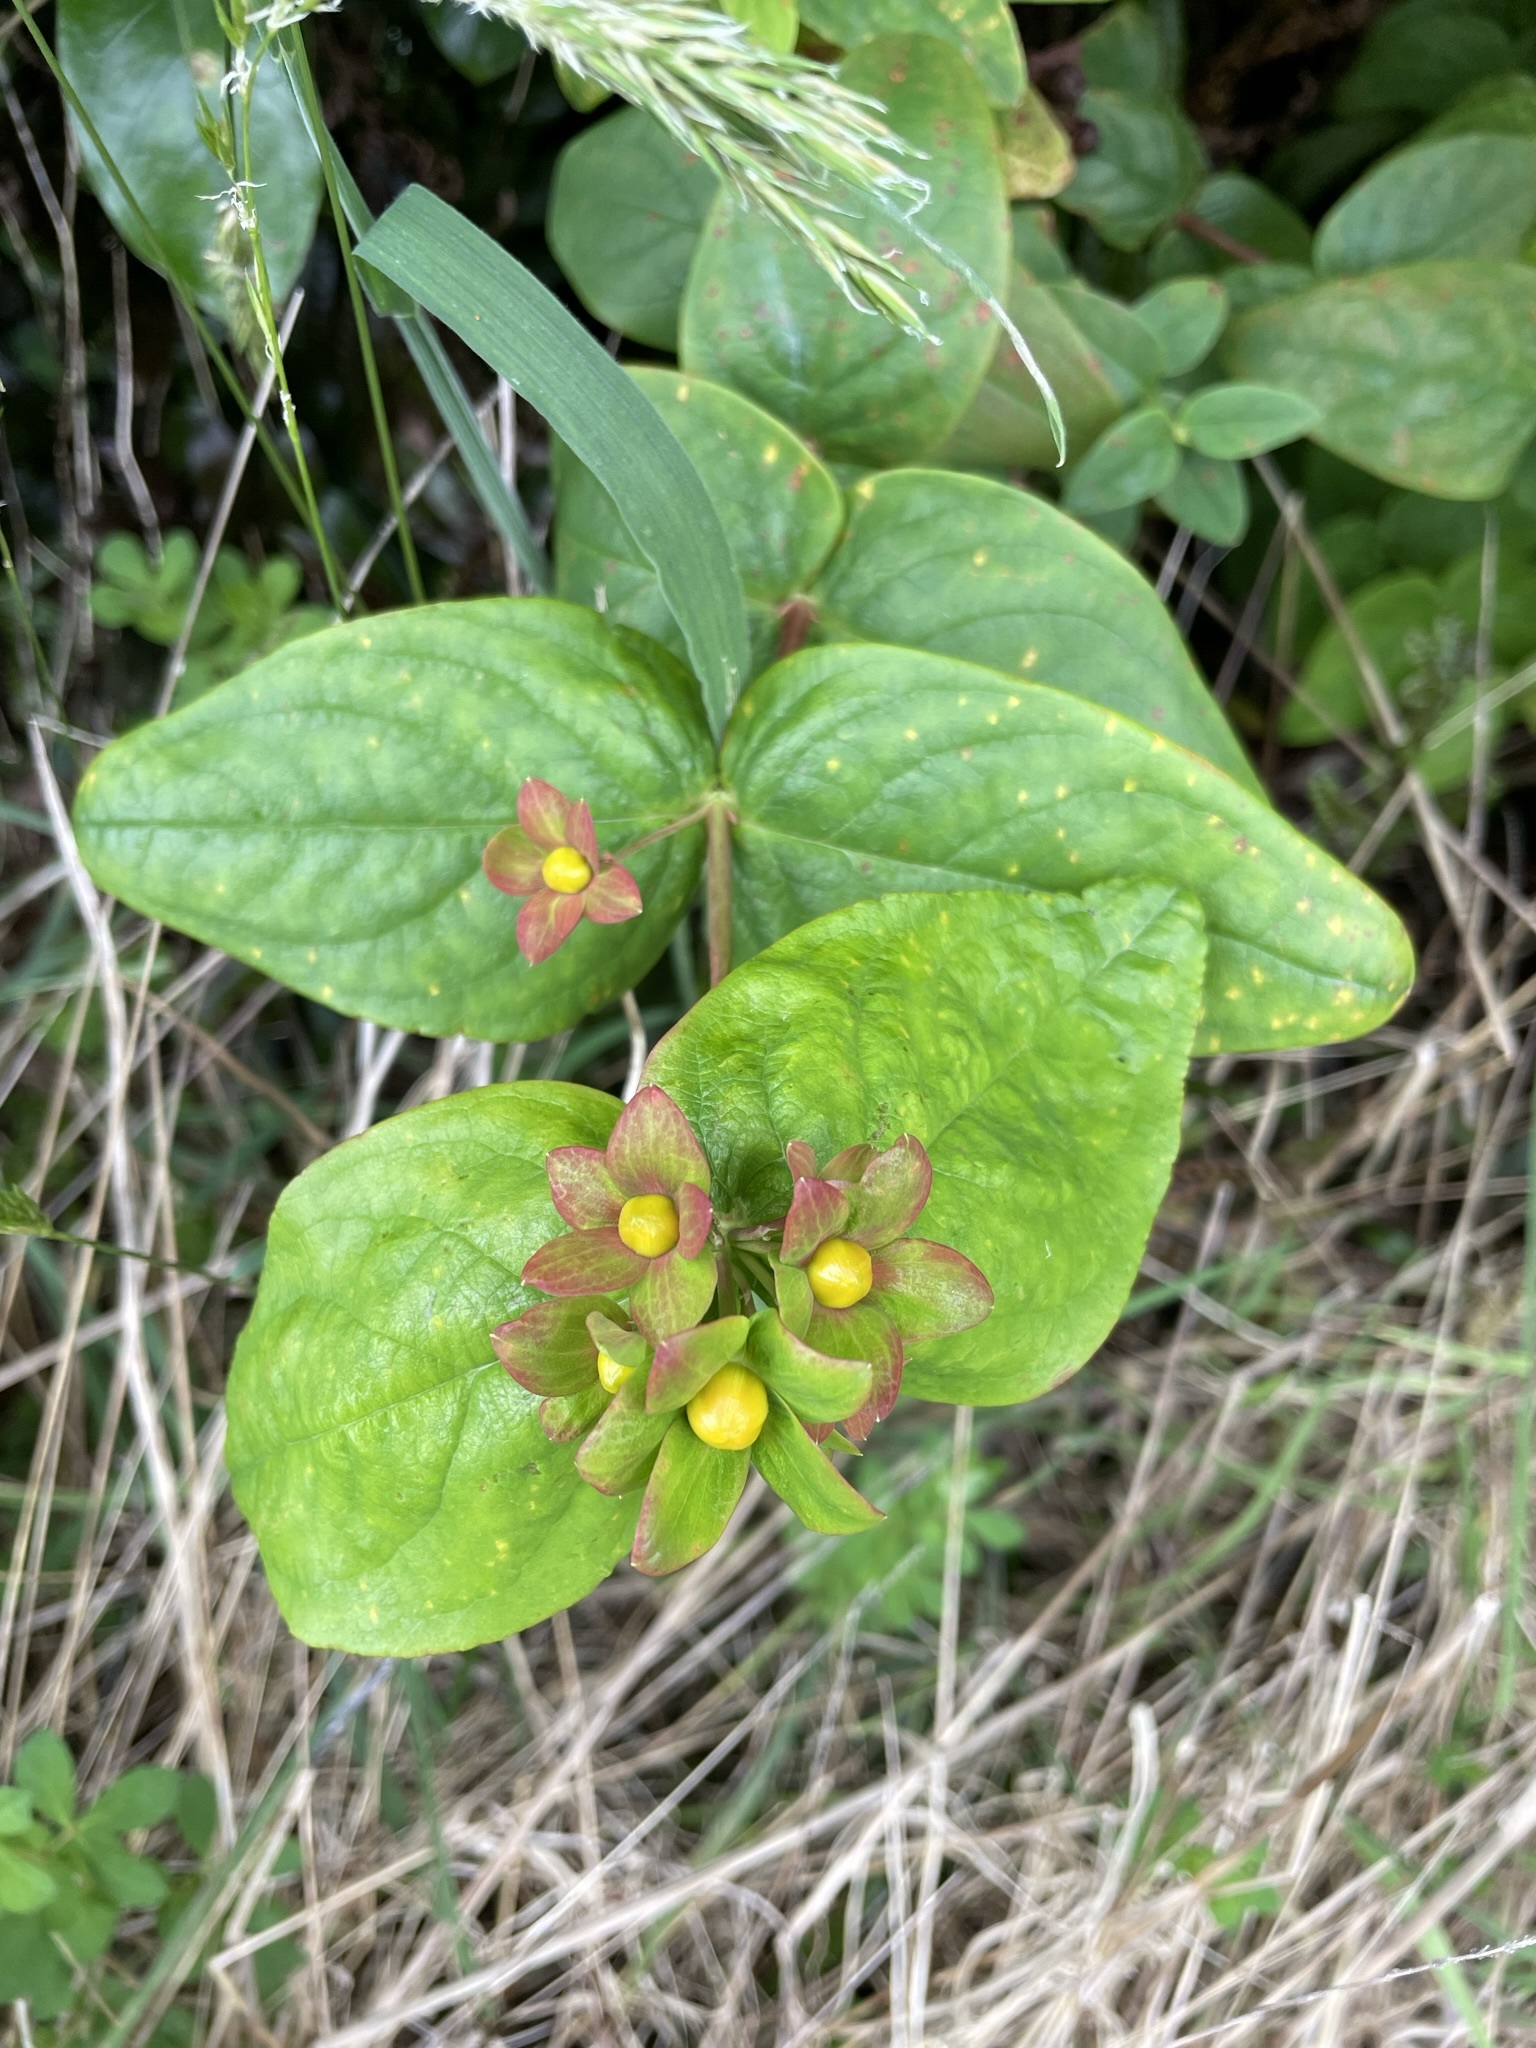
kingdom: Plantae
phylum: Tracheophyta
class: Magnoliopsida
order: Malpighiales
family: Hypericaceae
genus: Hypericum
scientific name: Hypericum androsaemum
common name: Sweet-amber
